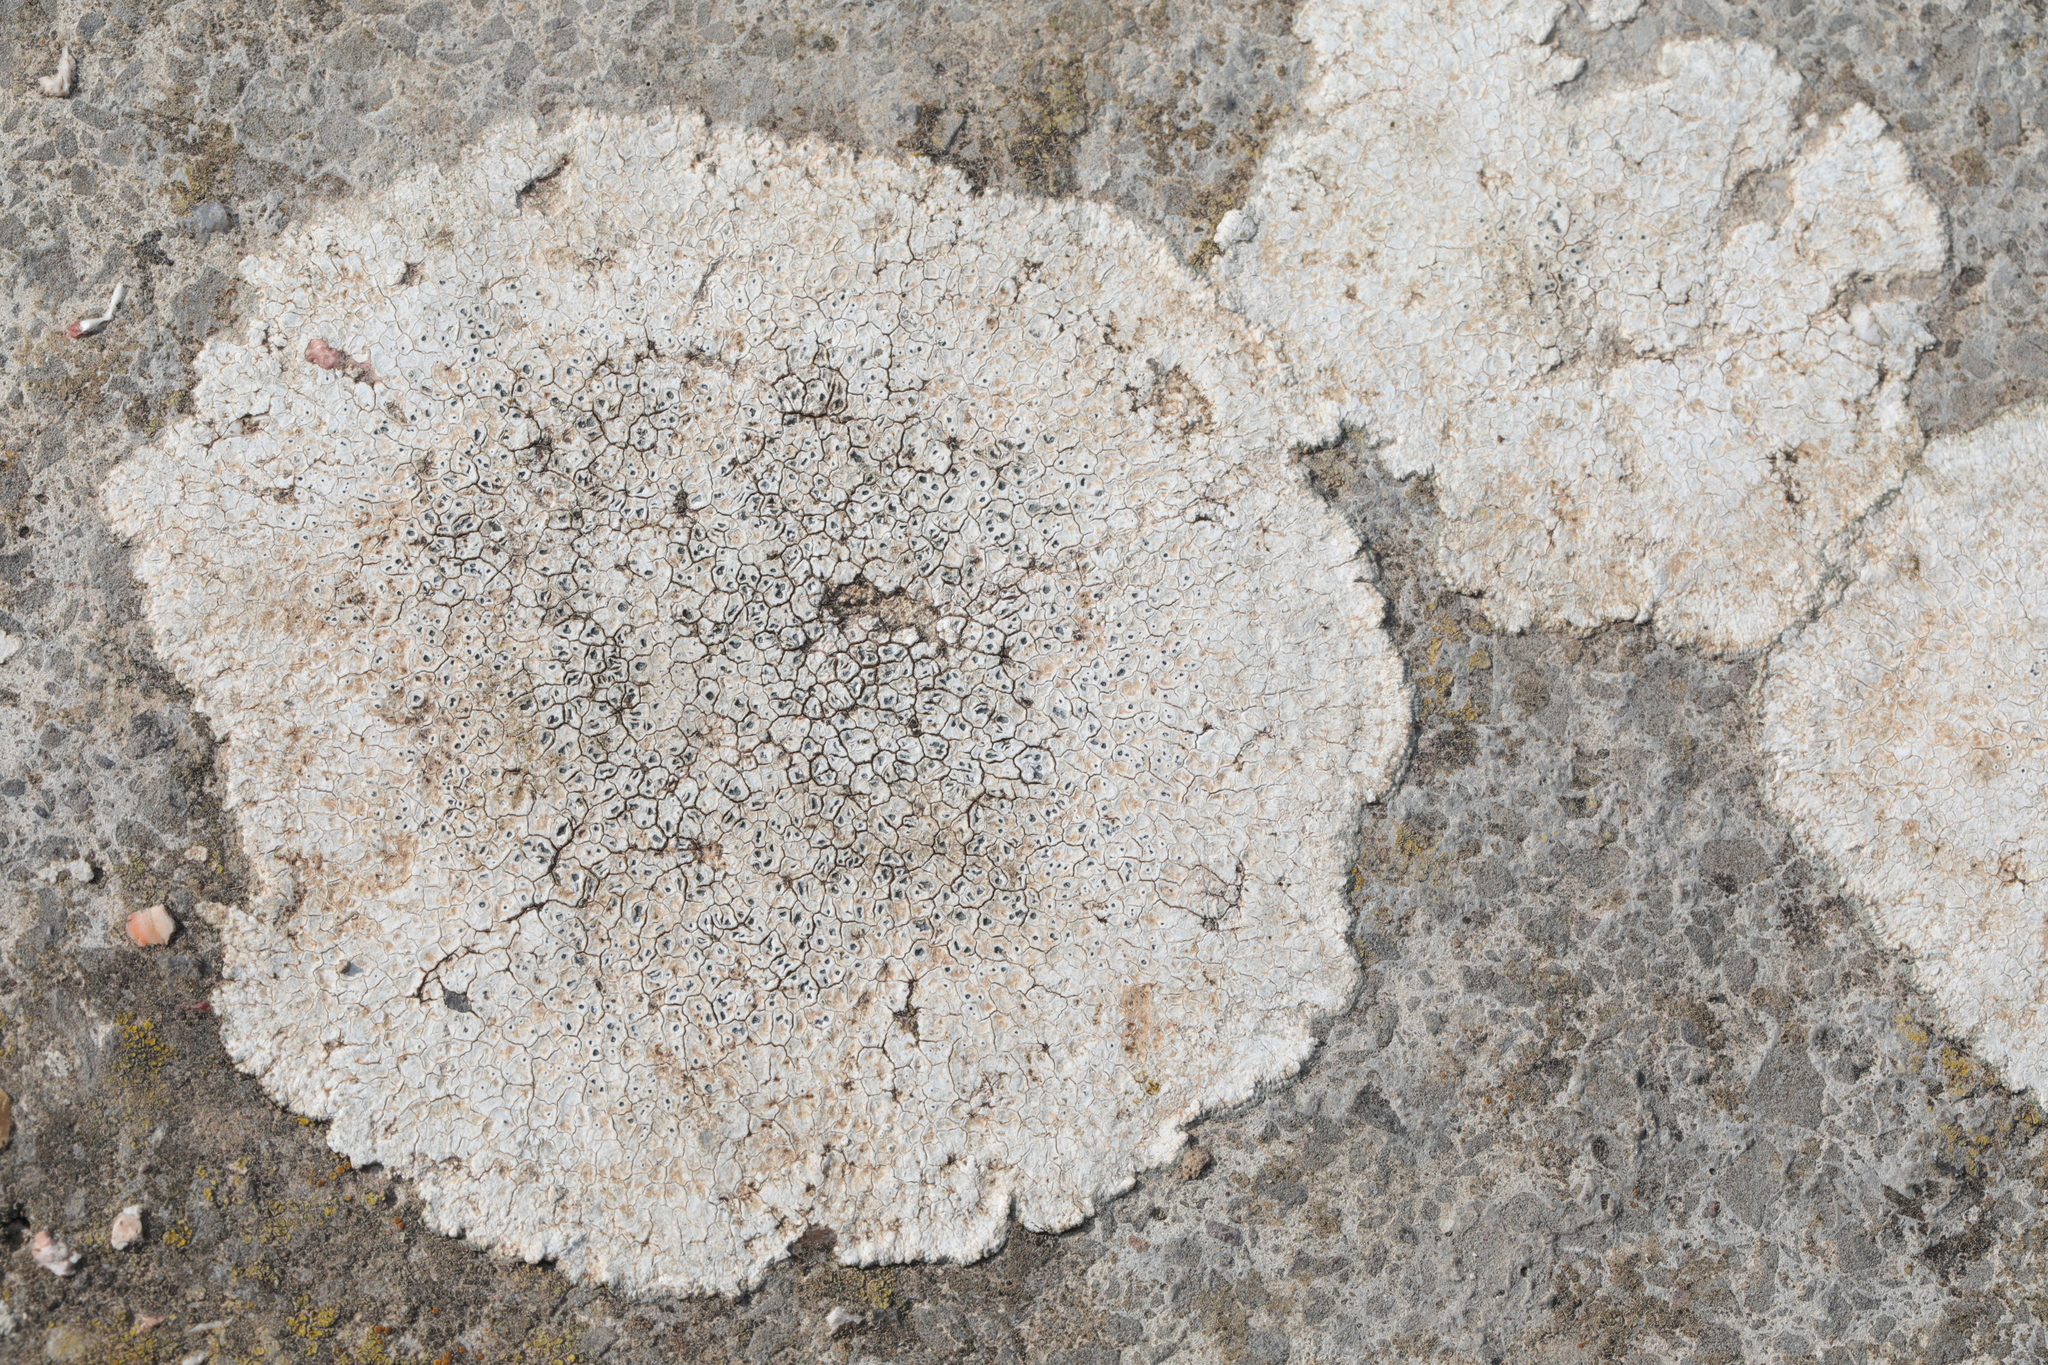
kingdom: Fungi
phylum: Ascomycota
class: Lecanoromycetes
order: Pertusariales
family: Megasporaceae
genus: Circinaria
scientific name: Circinaria calcarea
